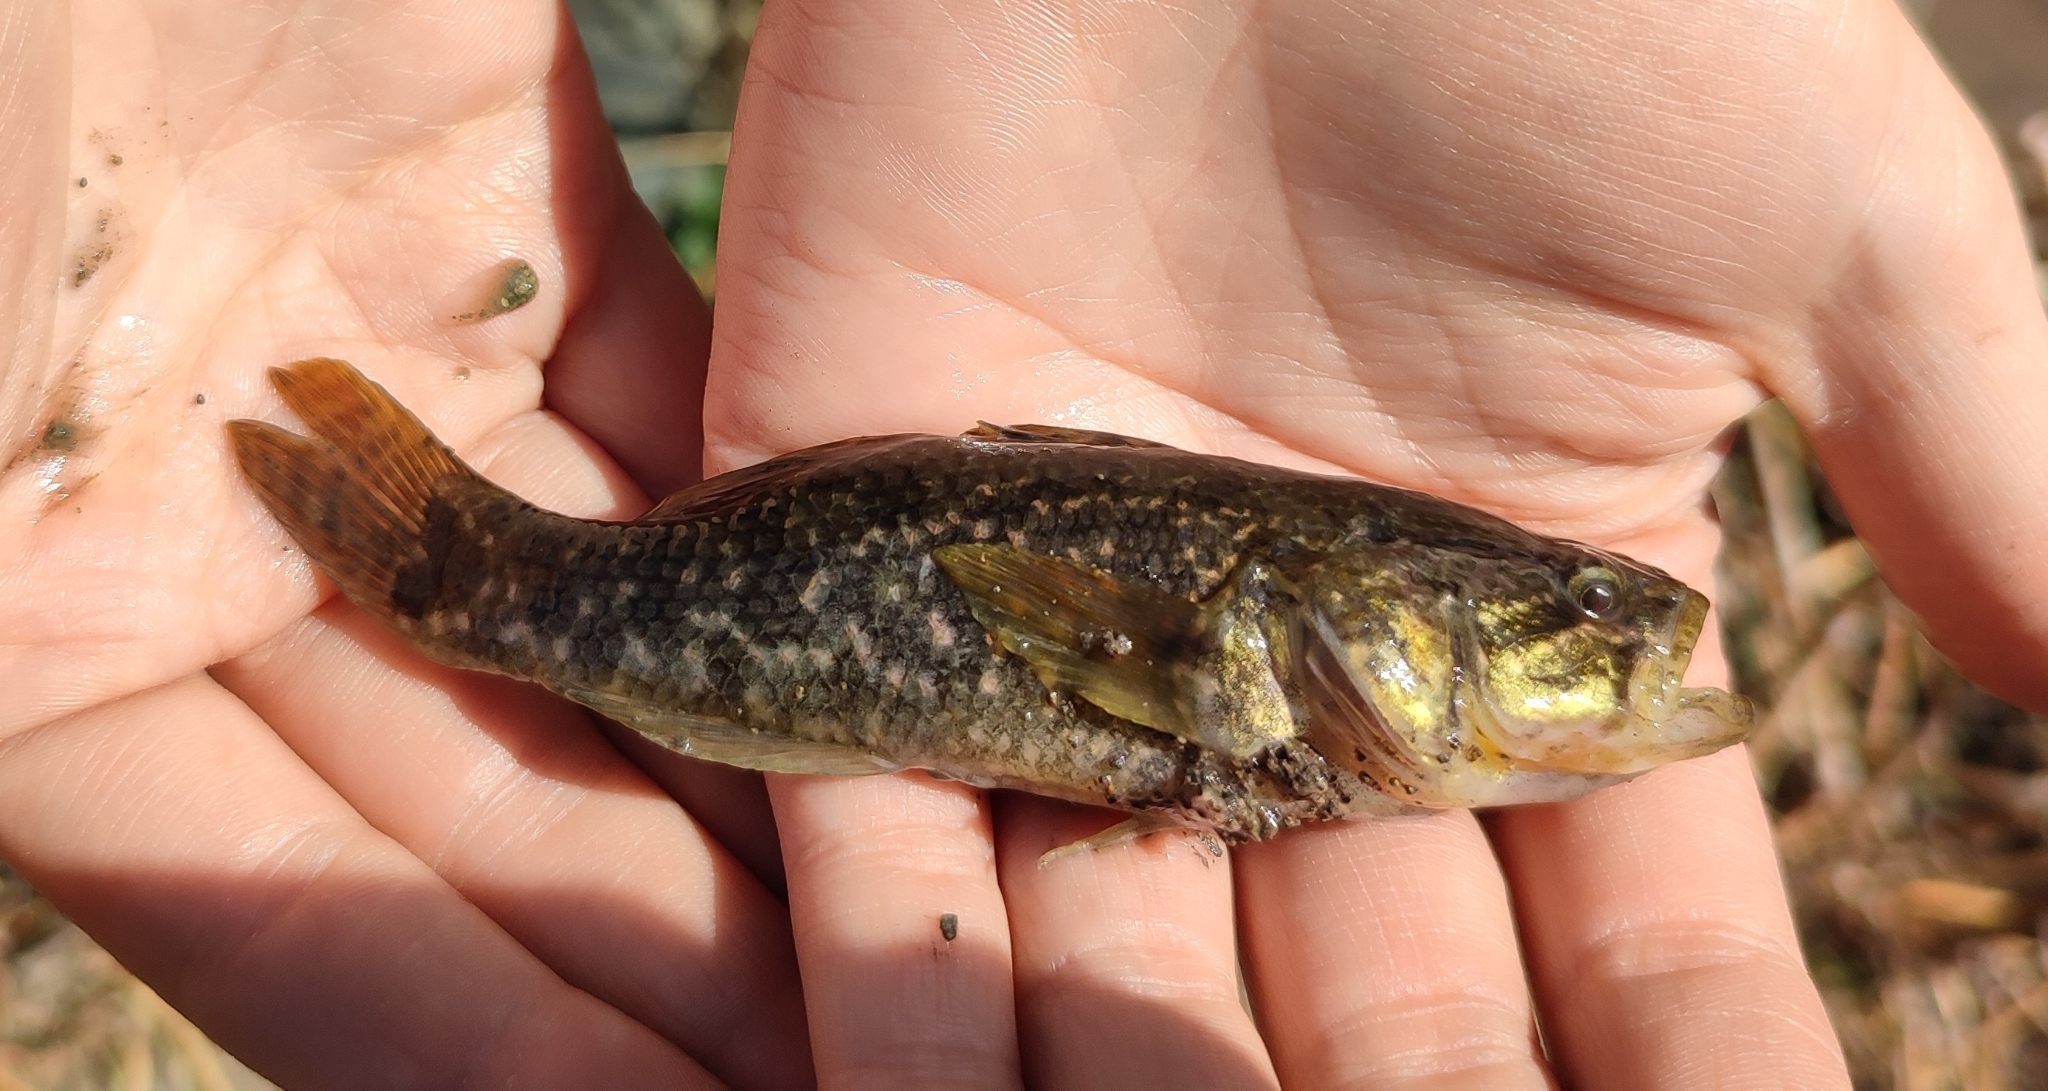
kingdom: Animalia
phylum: Chordata
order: Perciformes
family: Odontobutidae
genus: Perccottus
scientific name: Perccottus glenii
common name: Amur sleeper
